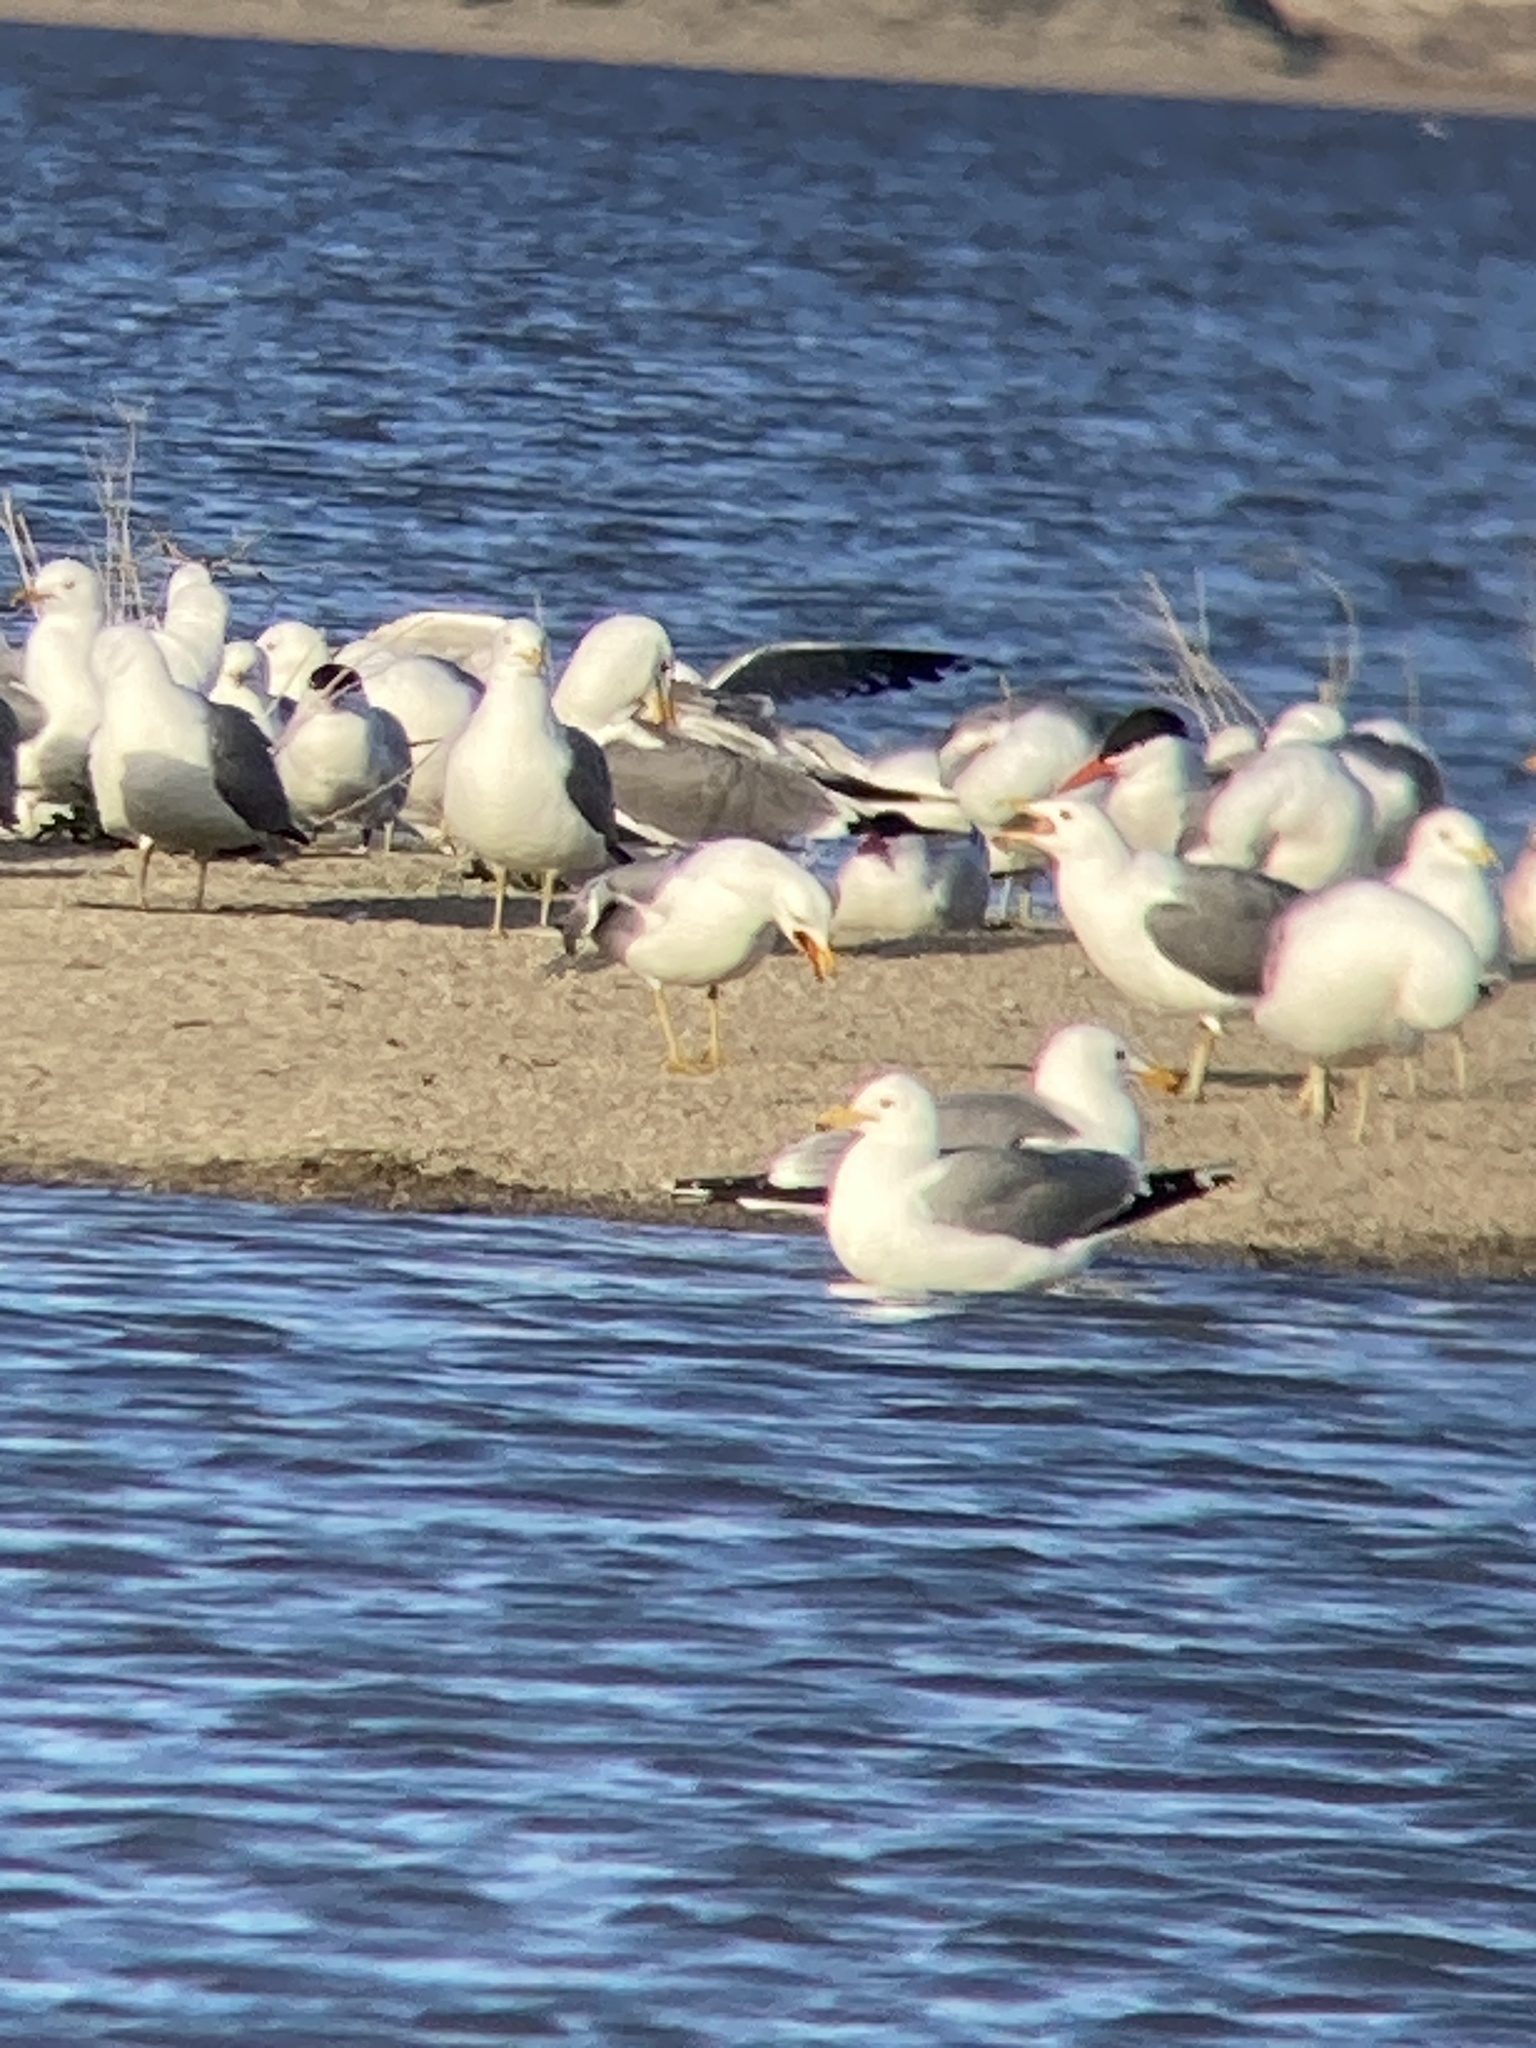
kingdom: Animalia
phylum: Chordata
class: Aves
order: Charadriiformes
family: Laridae
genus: Hydroprogne
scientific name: Hydroprogne caspia
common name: Caspian tern
